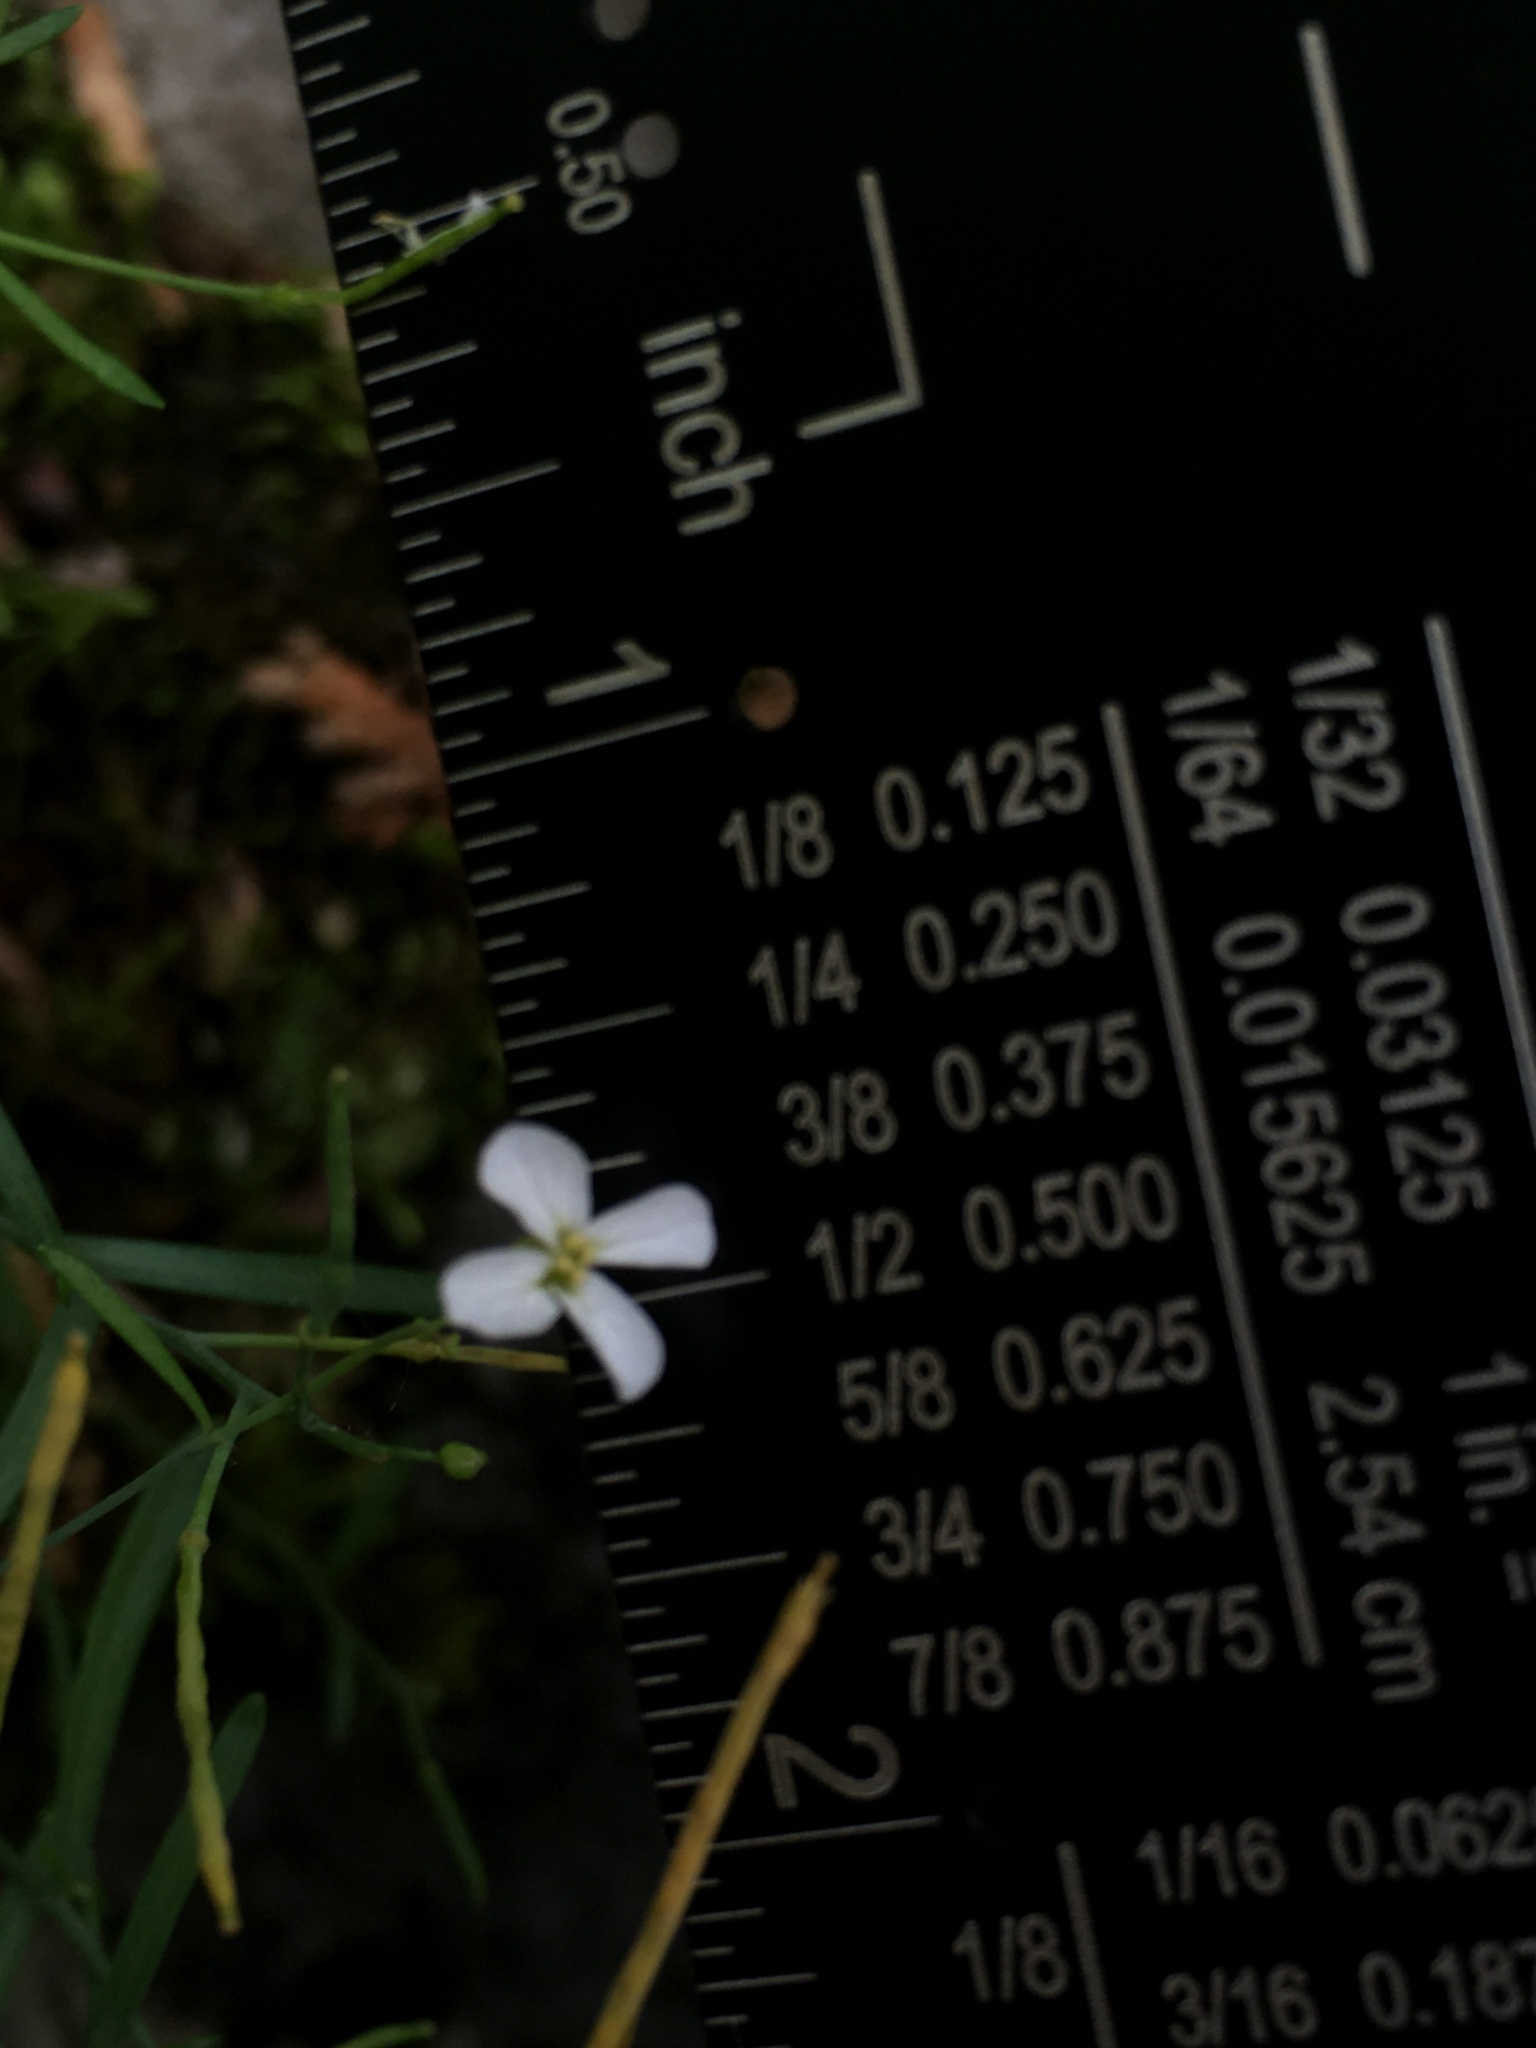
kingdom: Plantae
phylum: Tracheophyta
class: Magnoliopsida
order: Brassicales
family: Brassicaceae
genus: Arabidopsis
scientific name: Arabidopsis lyrata
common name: Lyrate rockcress
